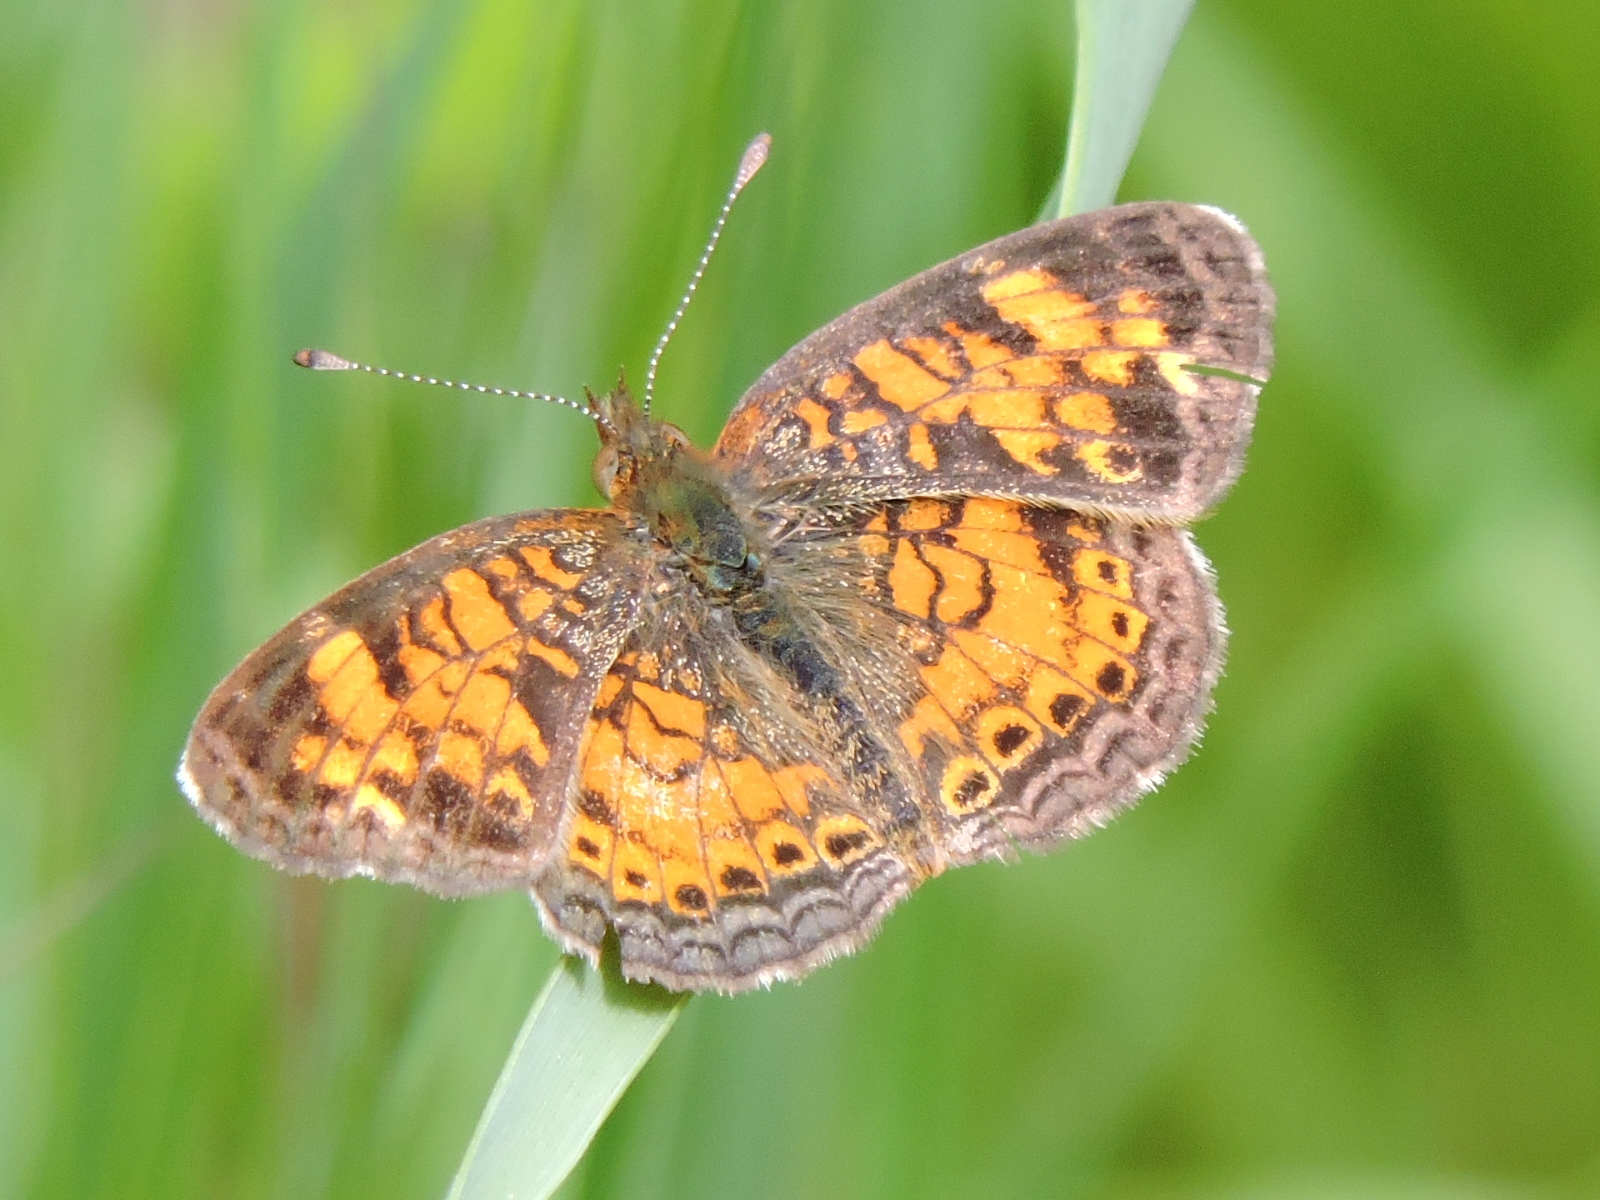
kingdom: Animalia
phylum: Arthropoda
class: Insecta
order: Lepidoptera
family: Nymphalidae
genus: Phyciodes
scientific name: Phyciodes tharos
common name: Pearl crescent
